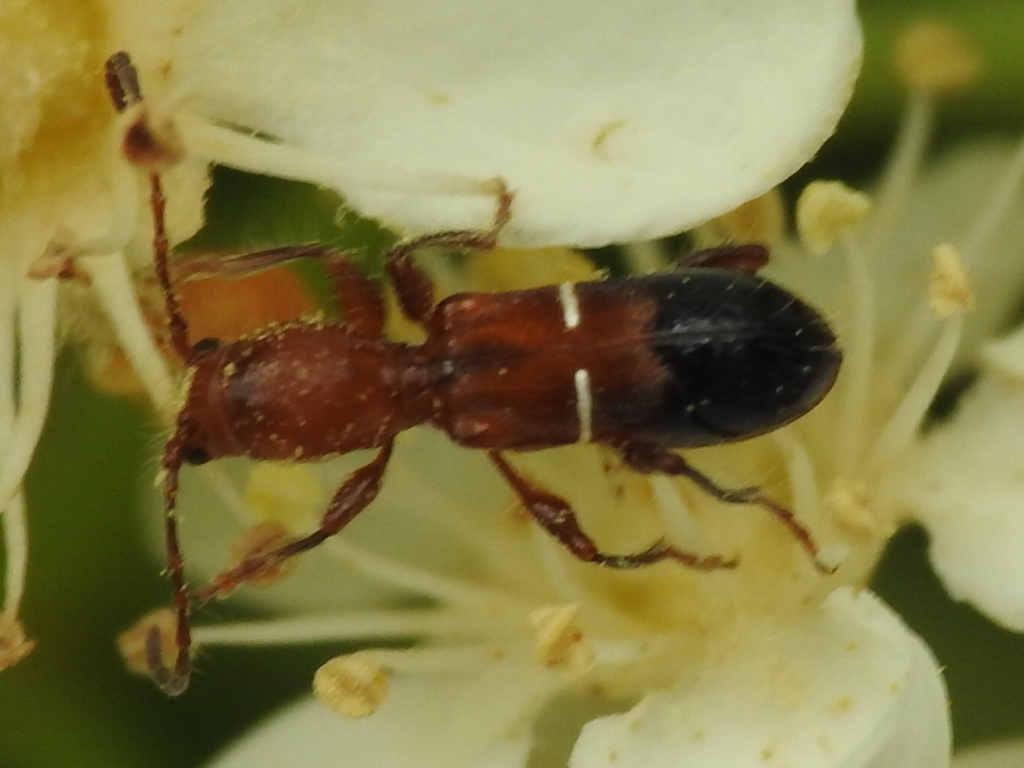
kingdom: Animalia
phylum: Arthropoda
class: Insecta
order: Coleoptera
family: Cerambycidae
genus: Euderces
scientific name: Euderces reichei
